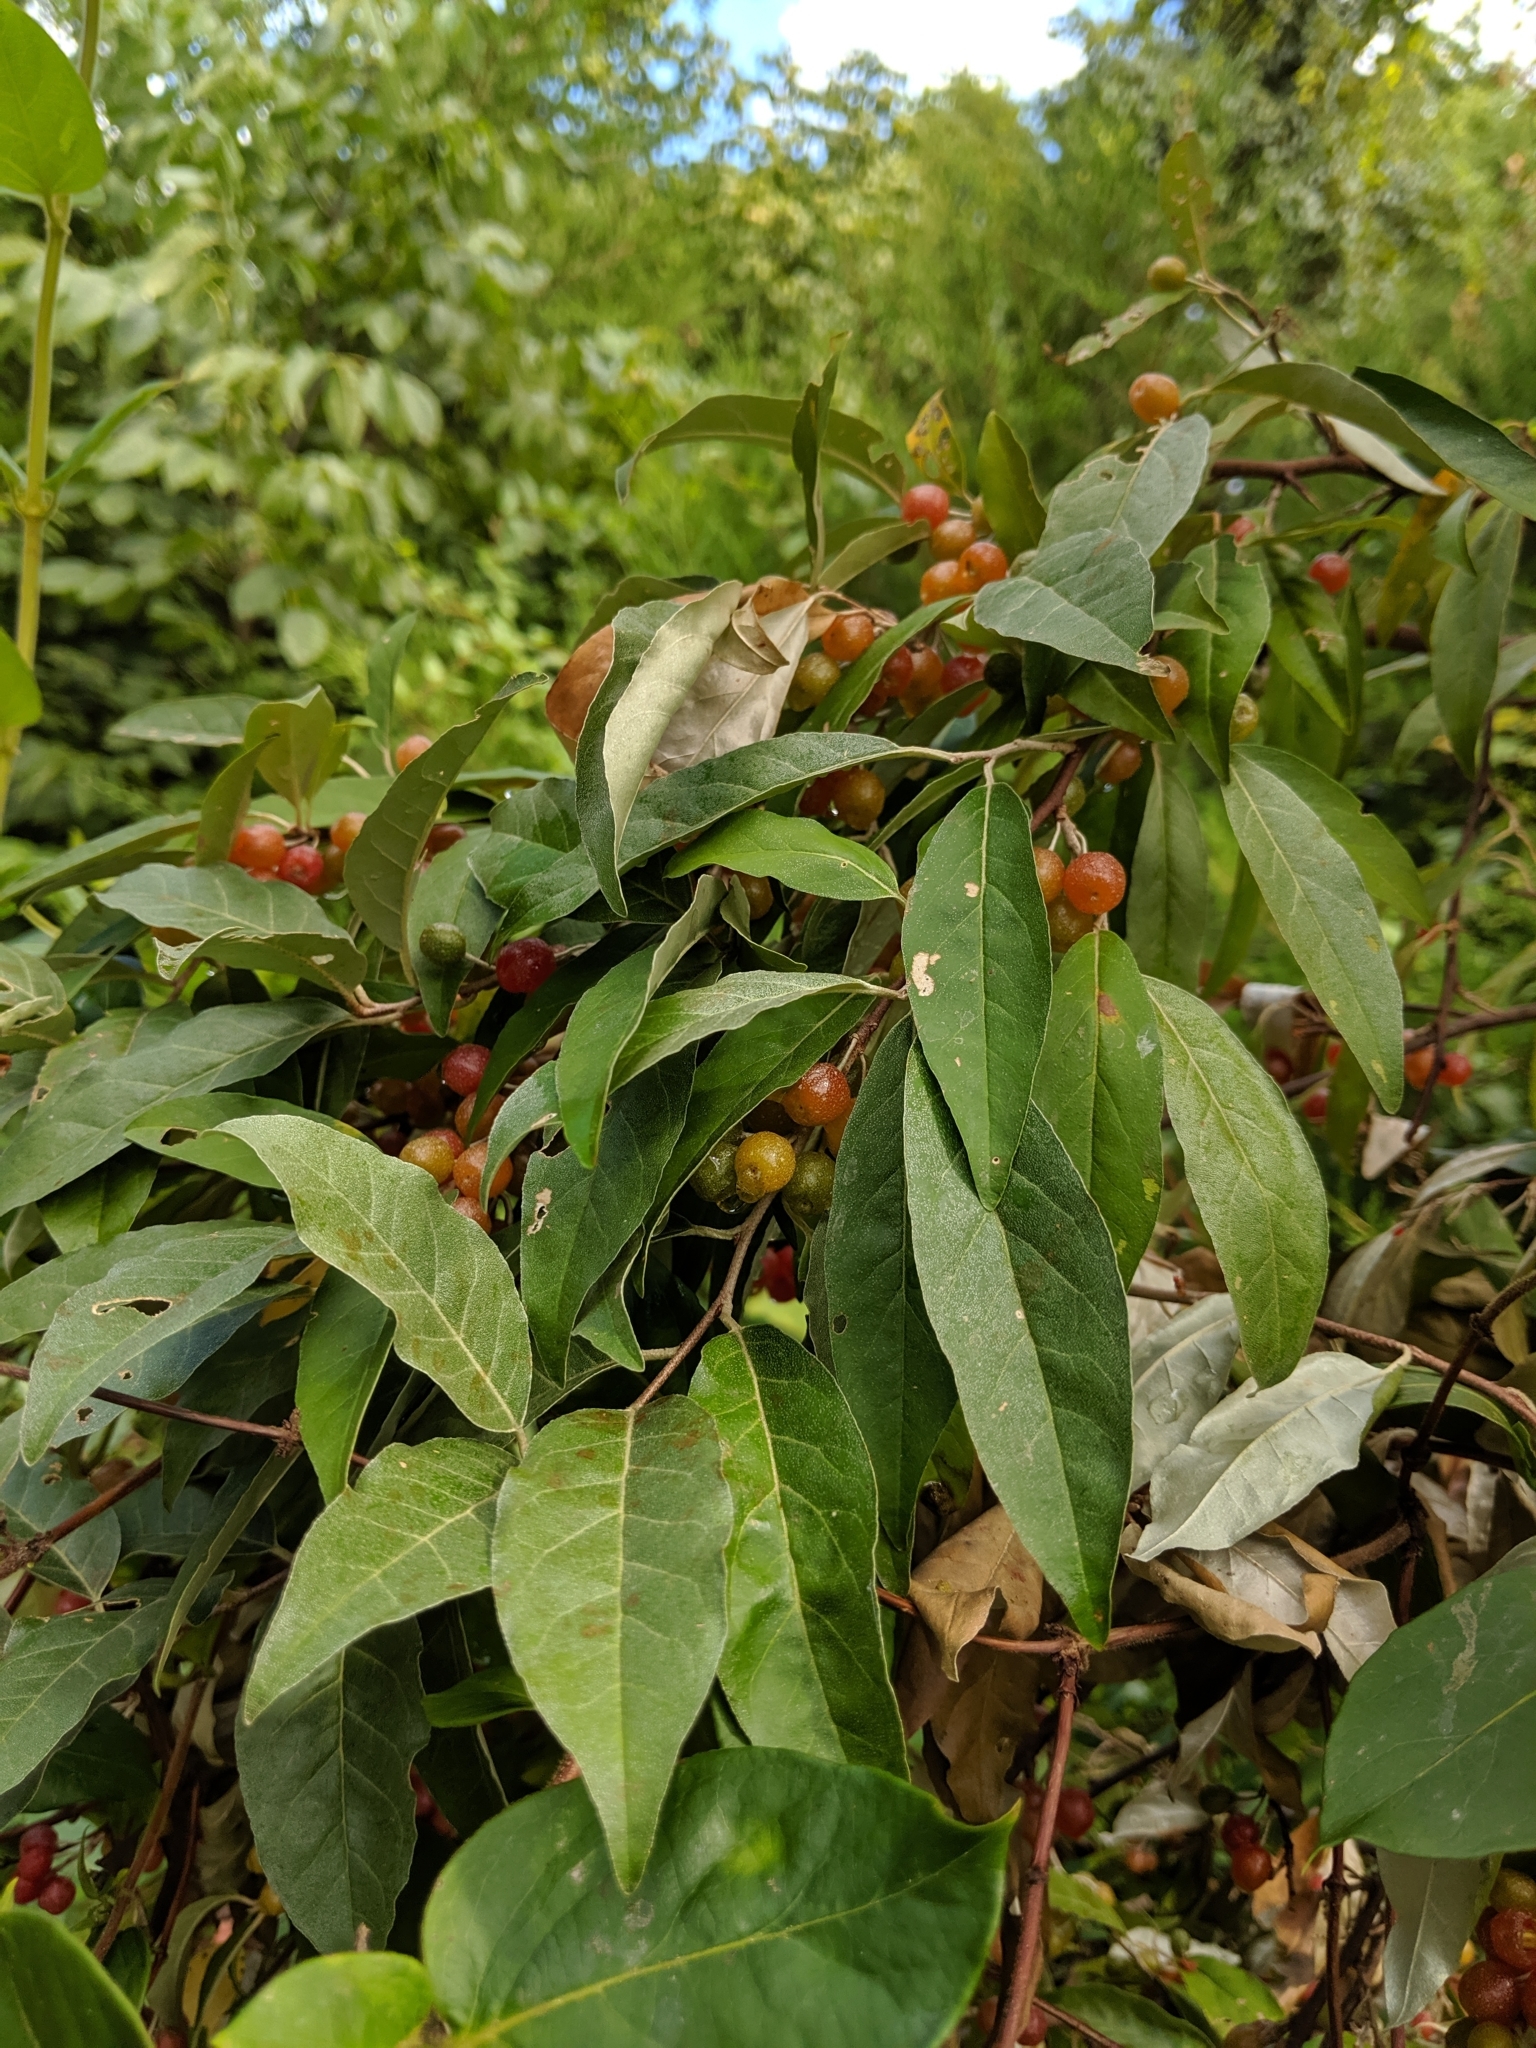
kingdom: Plantae
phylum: Tracheophyta
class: Magnoliopsida
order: Rosales
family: Elaeagnaceae
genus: Elaeagnus
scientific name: Elaeagnus umbellata
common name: Autumn olive
